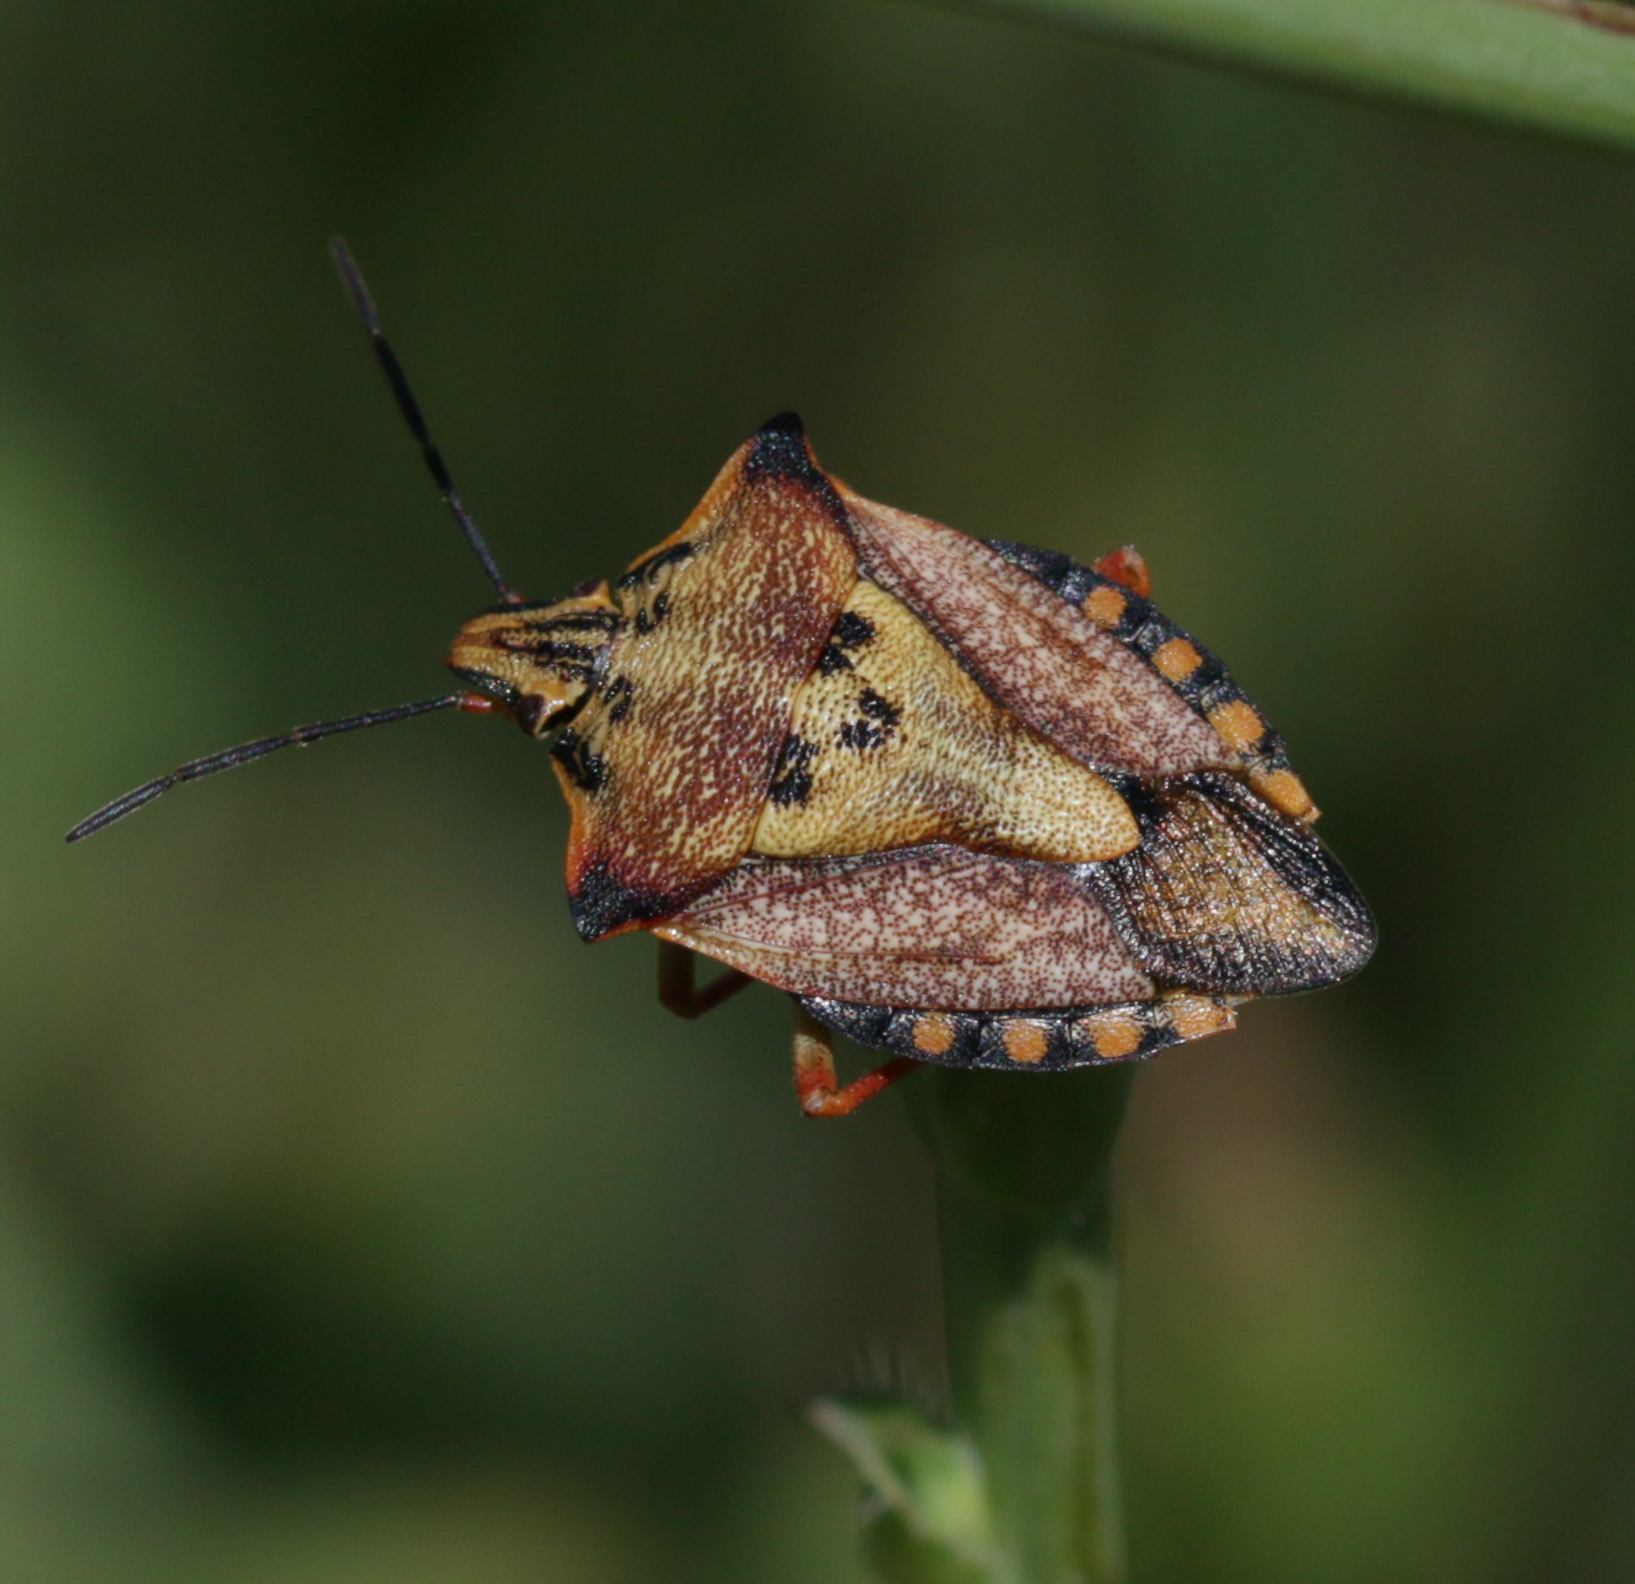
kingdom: Animalia
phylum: Arthropoda
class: Insecta
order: Hemiptera
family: Pentatomidae
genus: Carpocoris
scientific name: Carpocoris mediterraneus
